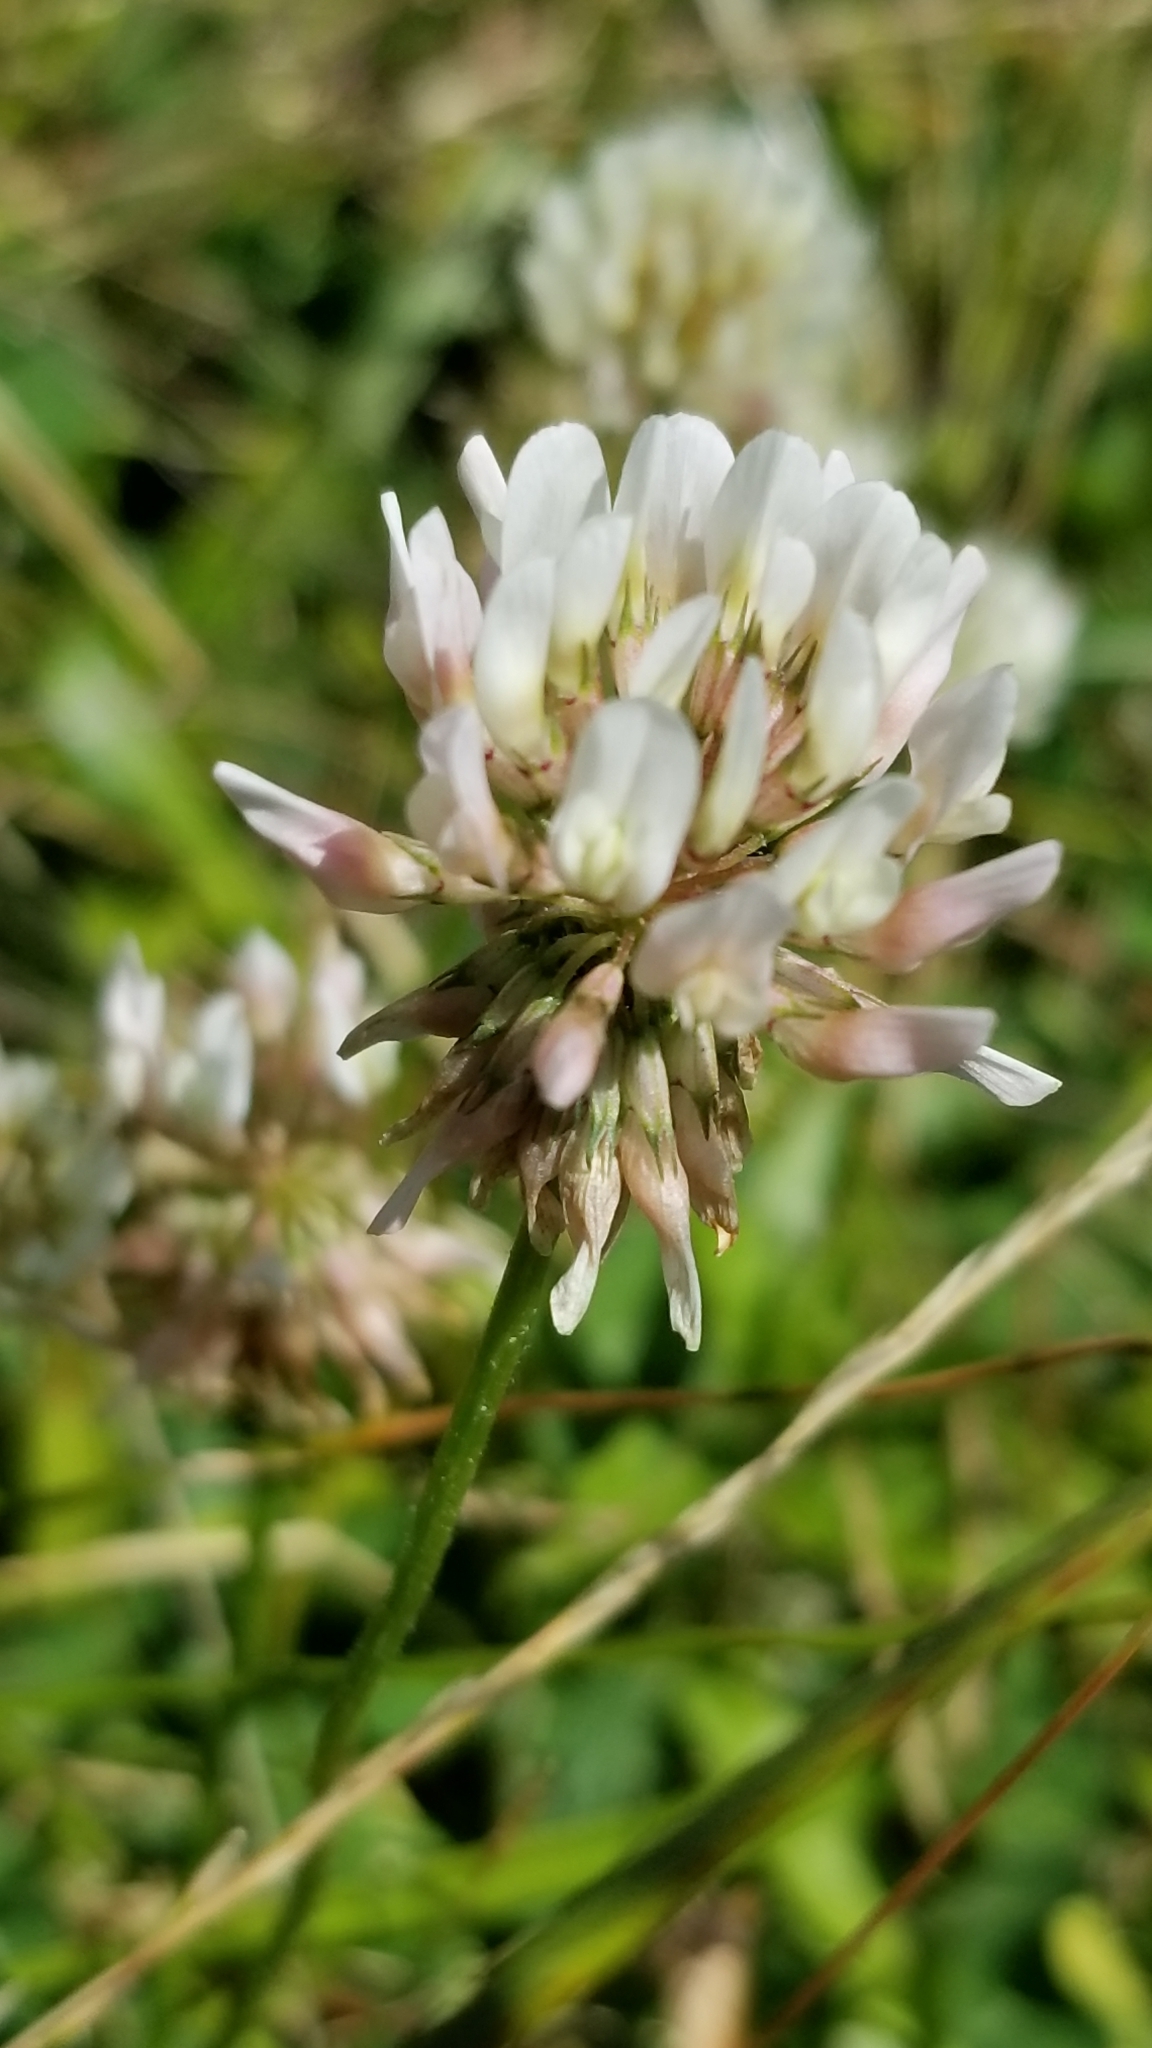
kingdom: Plantae
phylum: Tracheophyta
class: Magnoliopsida
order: Fabales
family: Fabaceae
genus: Trifolium
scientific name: Trifolium repens
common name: White clover
